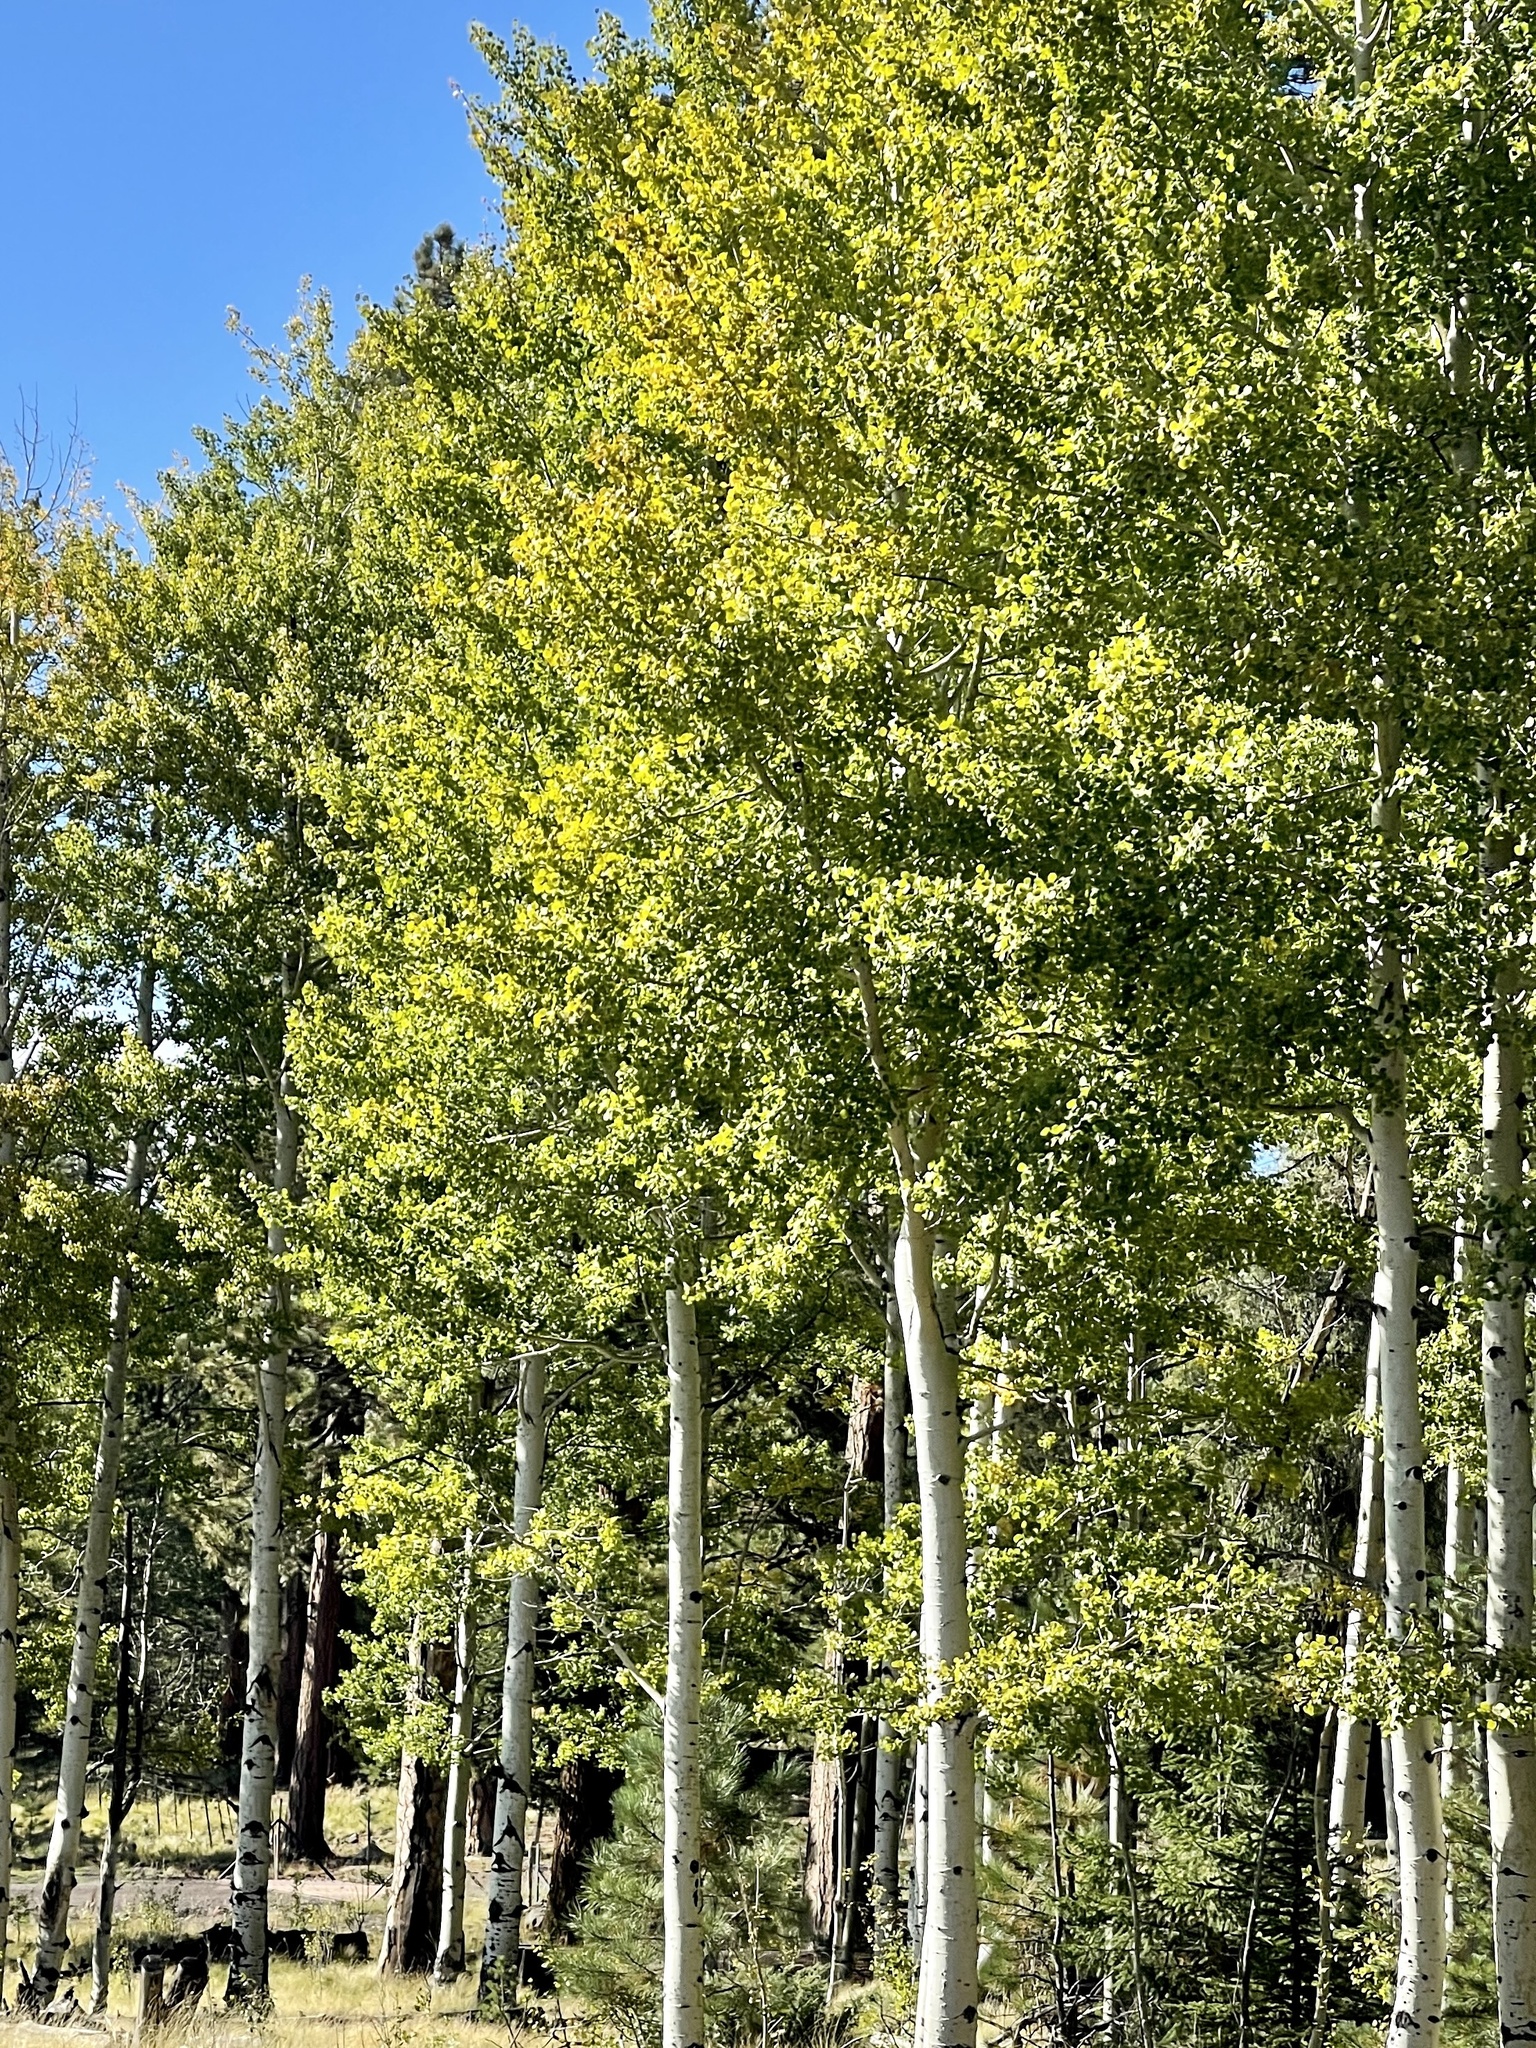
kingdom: Plantae
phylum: Tracheophyta
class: Magnoliopsida
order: Malpighiales
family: Salicaceae
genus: Populus
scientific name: Populus tremuloides
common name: Quaking aspen
